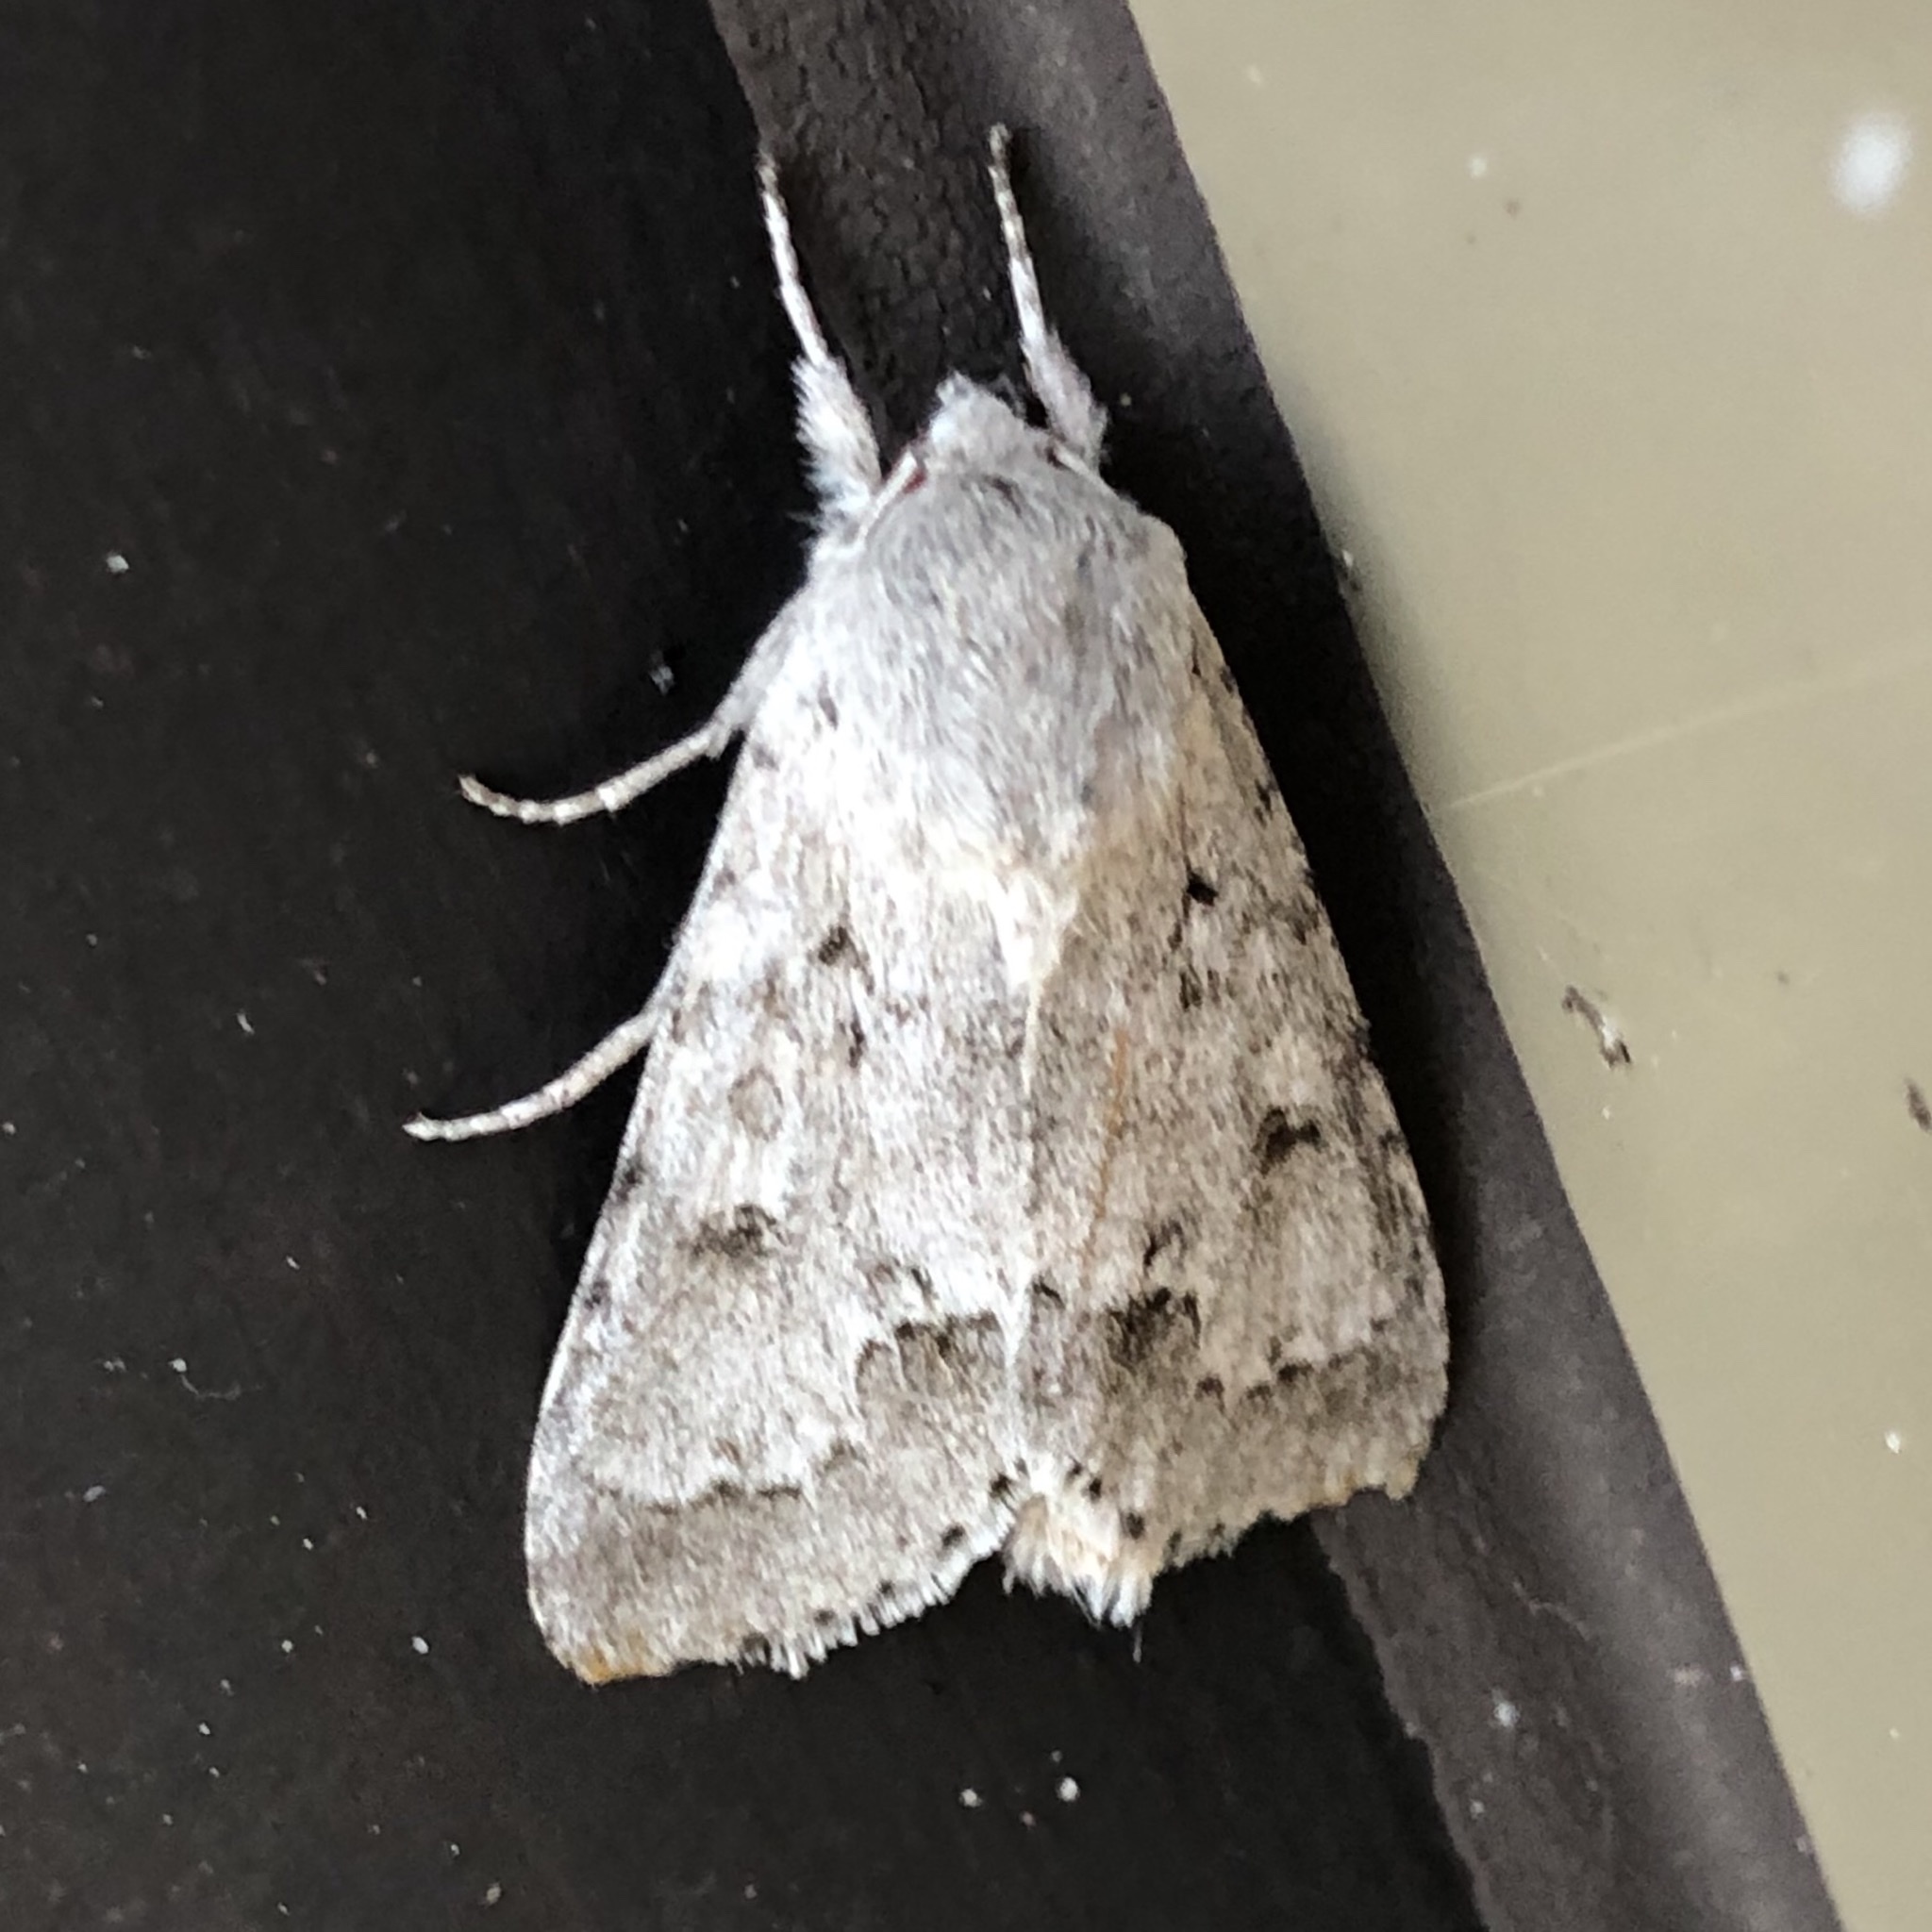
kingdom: Animalia
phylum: Arthropoda
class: Insecta
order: Lepidoptera
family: Noctuidae
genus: Acronicta
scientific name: Acronicta insita
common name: Large gray dagger
